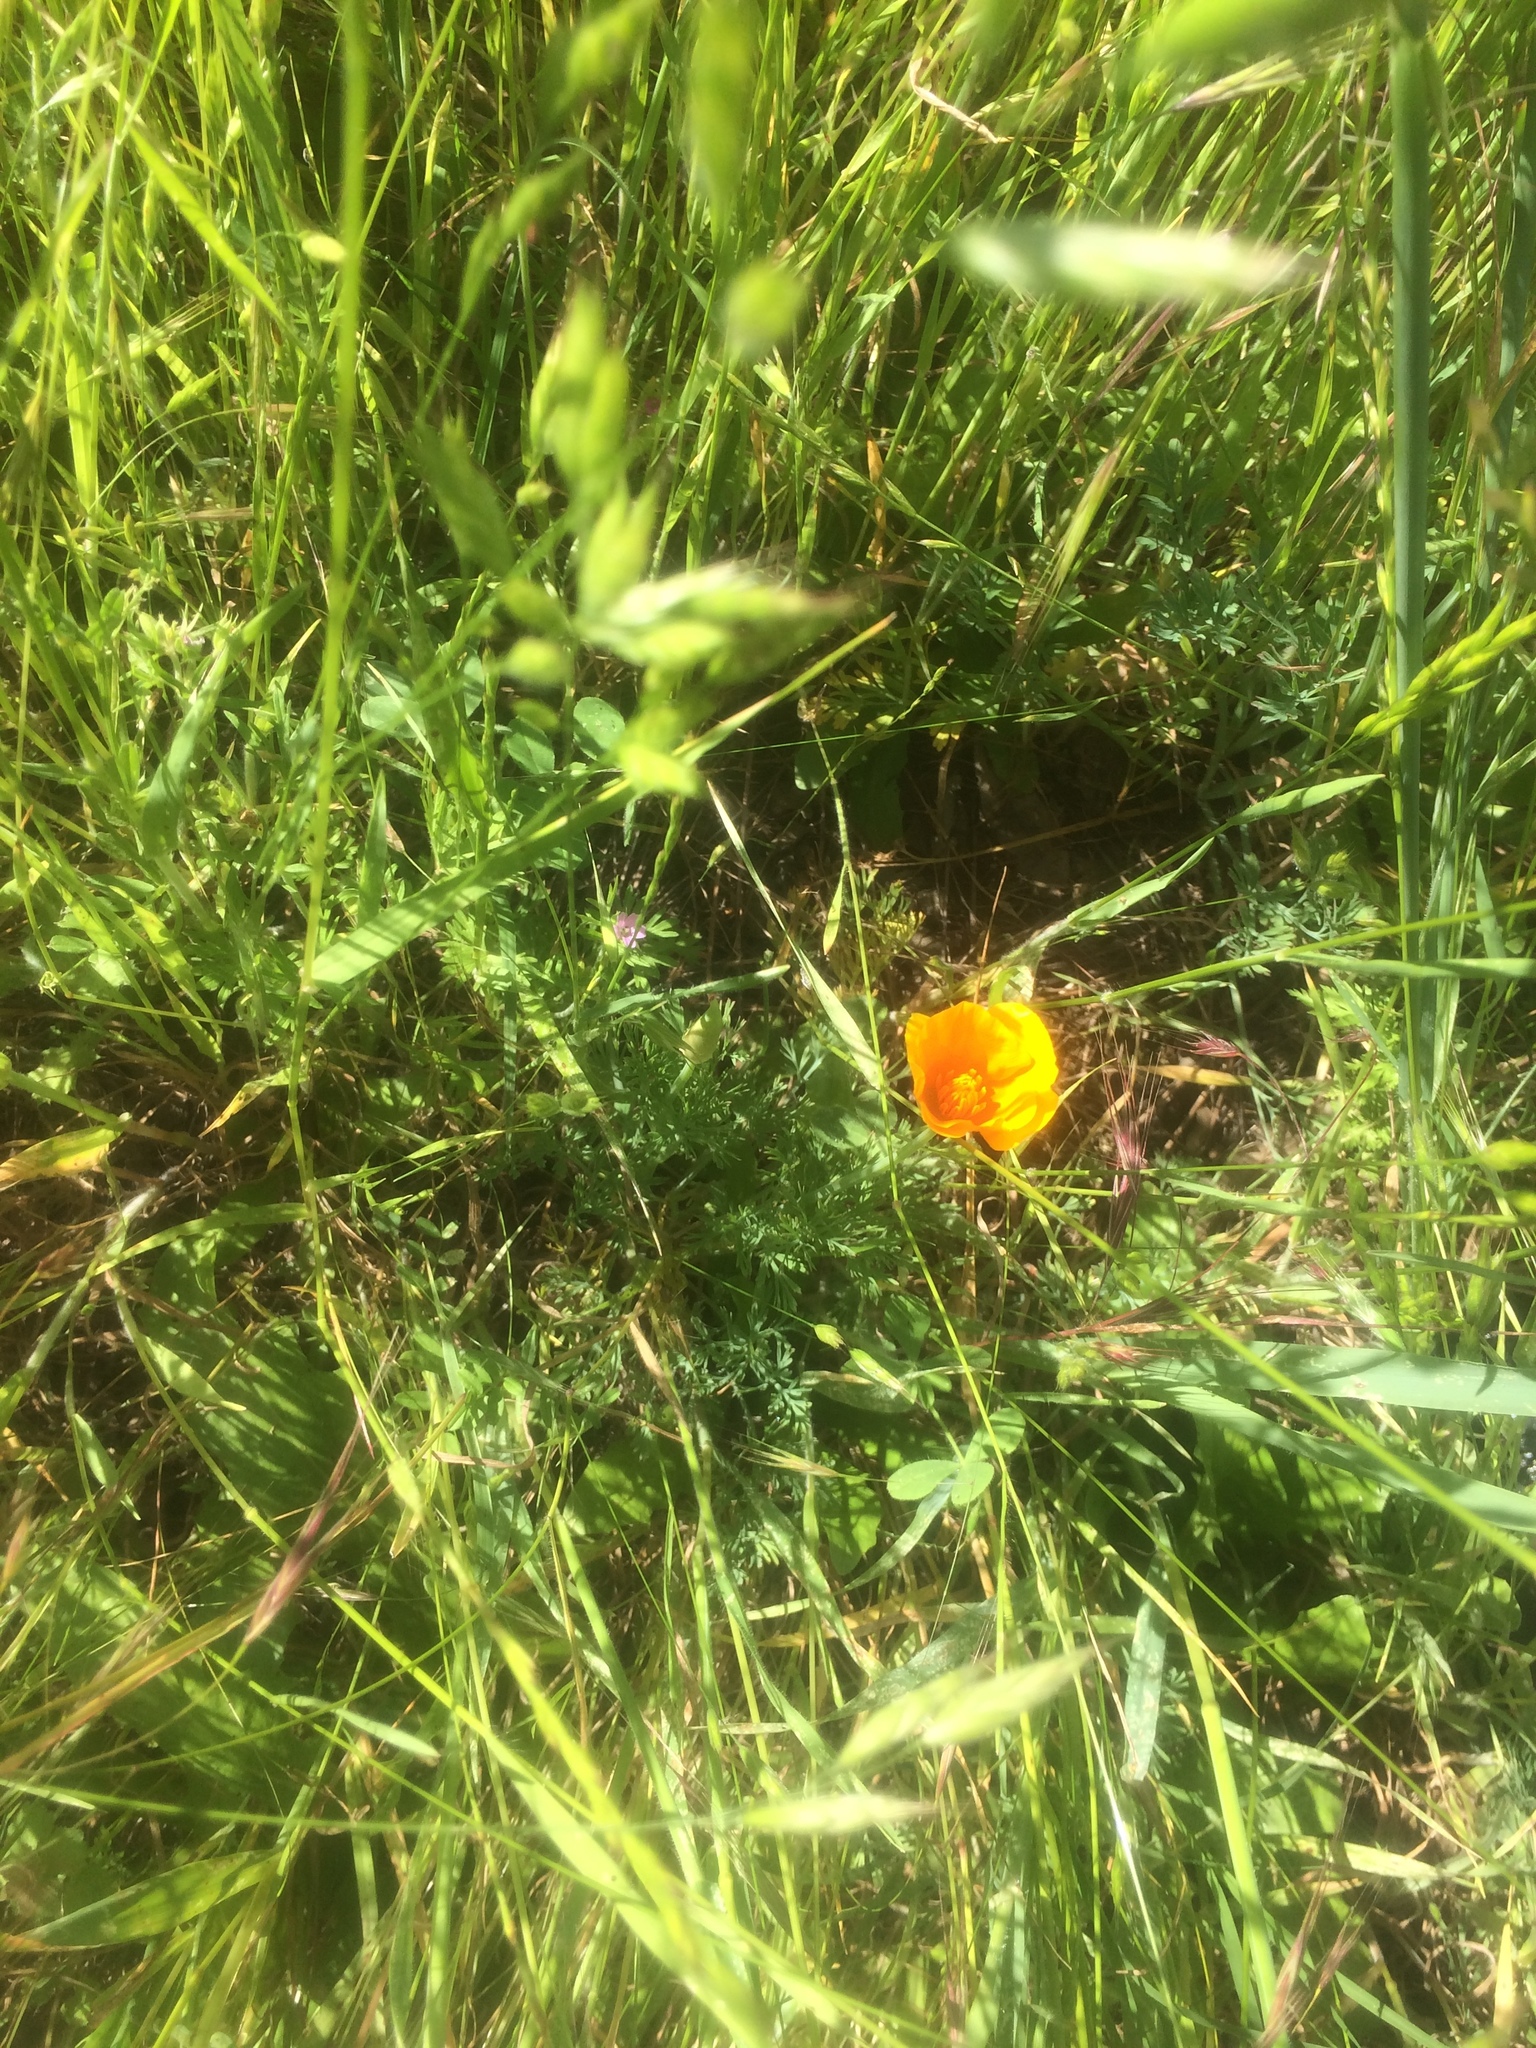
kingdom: Plantae
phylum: Tracheophyta
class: Magnoliopsida
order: Ranunculales
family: Papaveraceae
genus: Eschscholzia
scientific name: Eschscholzia californica
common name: California poppy
